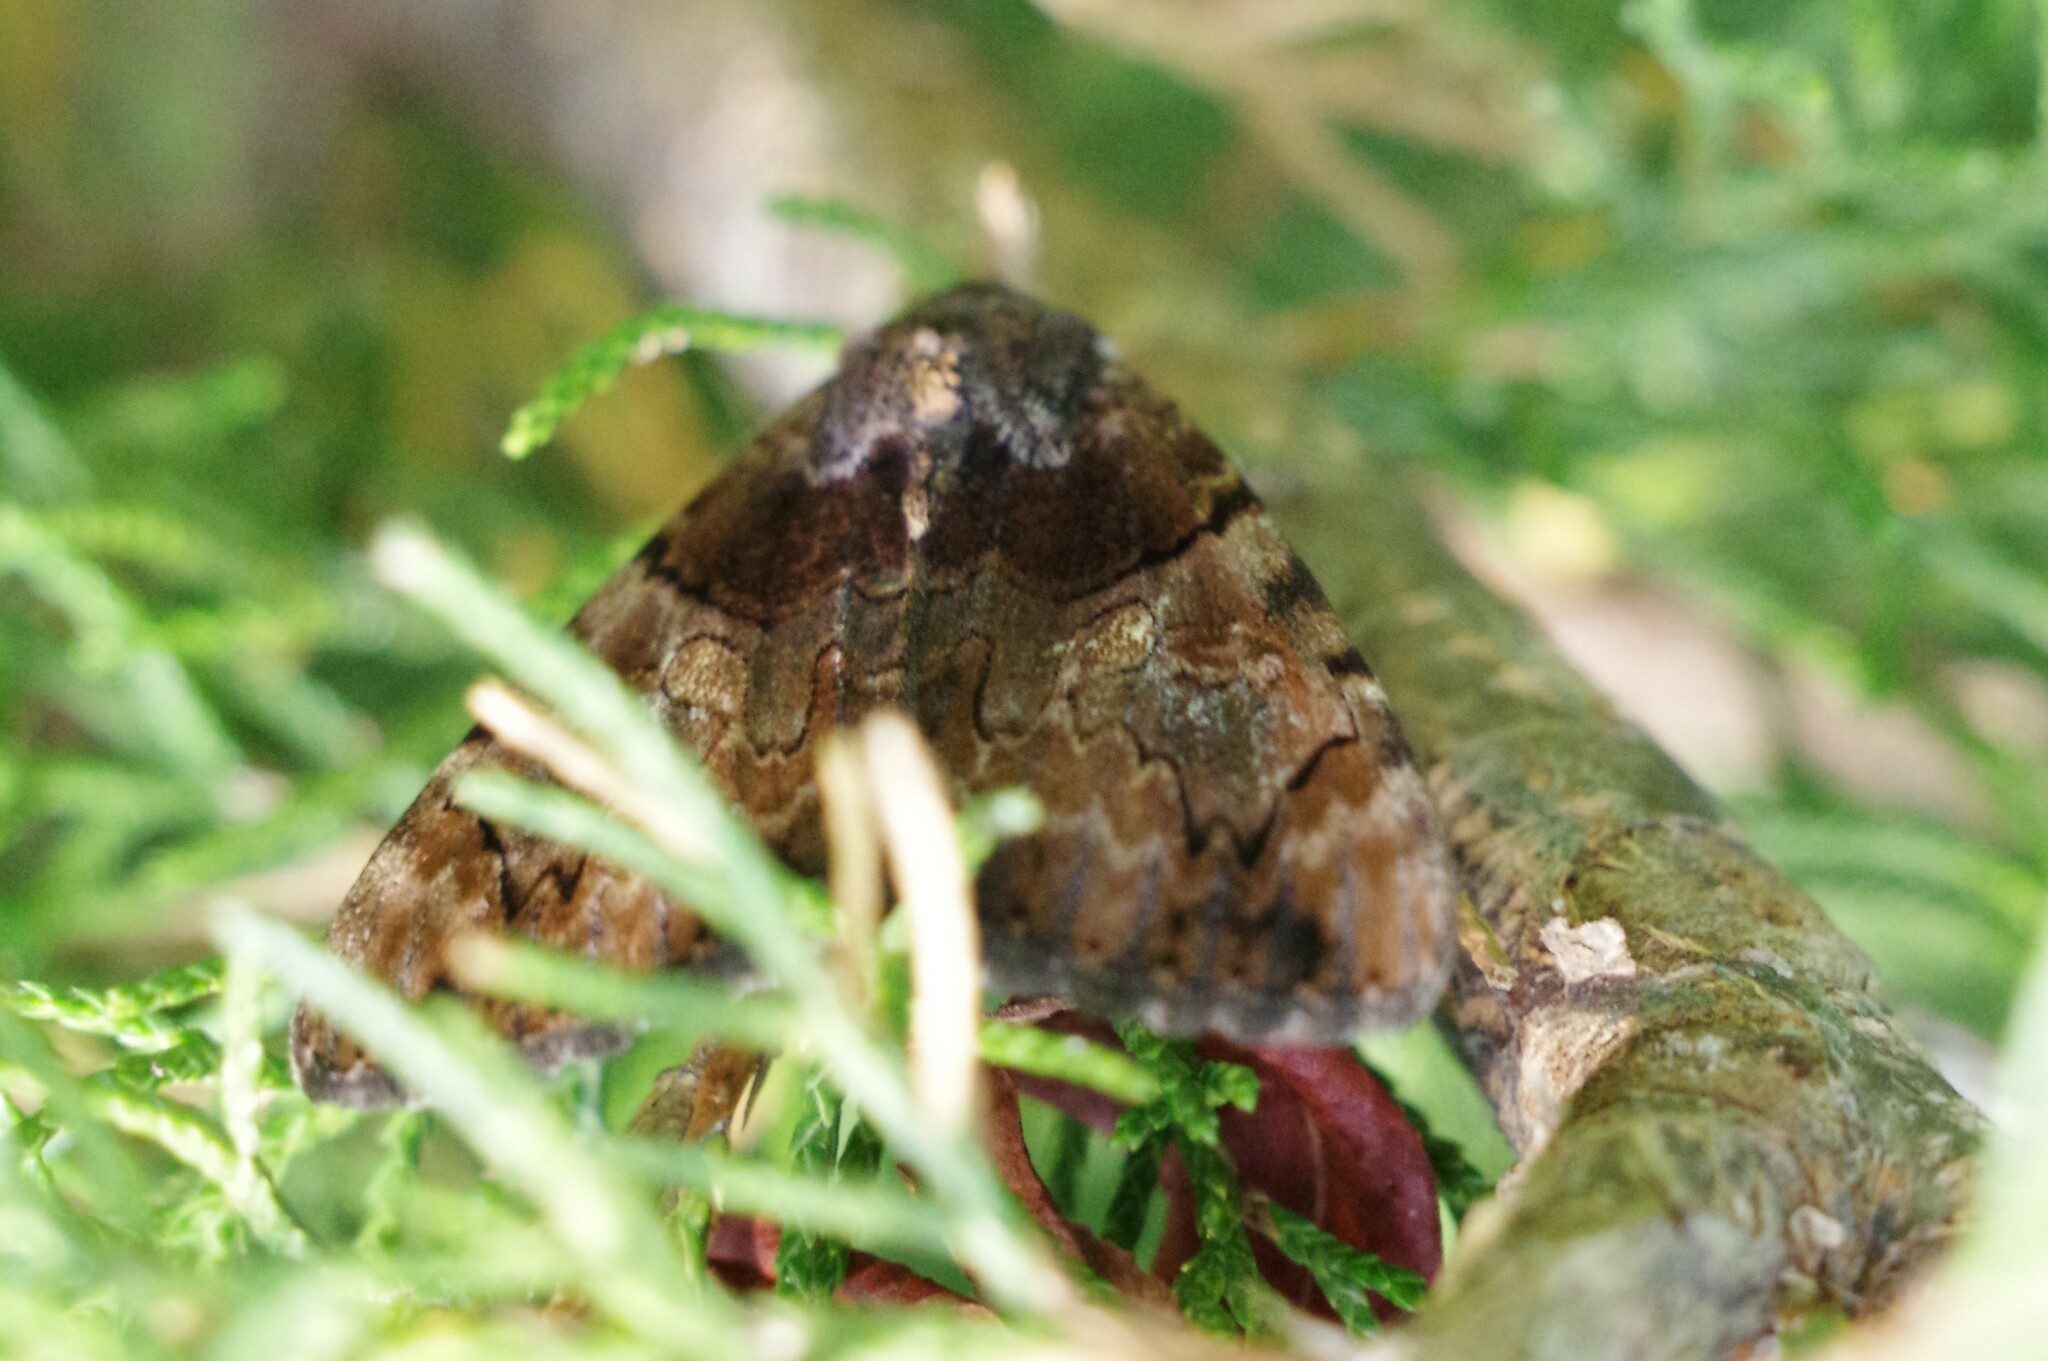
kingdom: Animalia
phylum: Arthropoda
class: Insecta
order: Lepidoptera
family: Erebidae
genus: Catocala
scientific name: Catocala muliercula
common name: The little wife underwing
